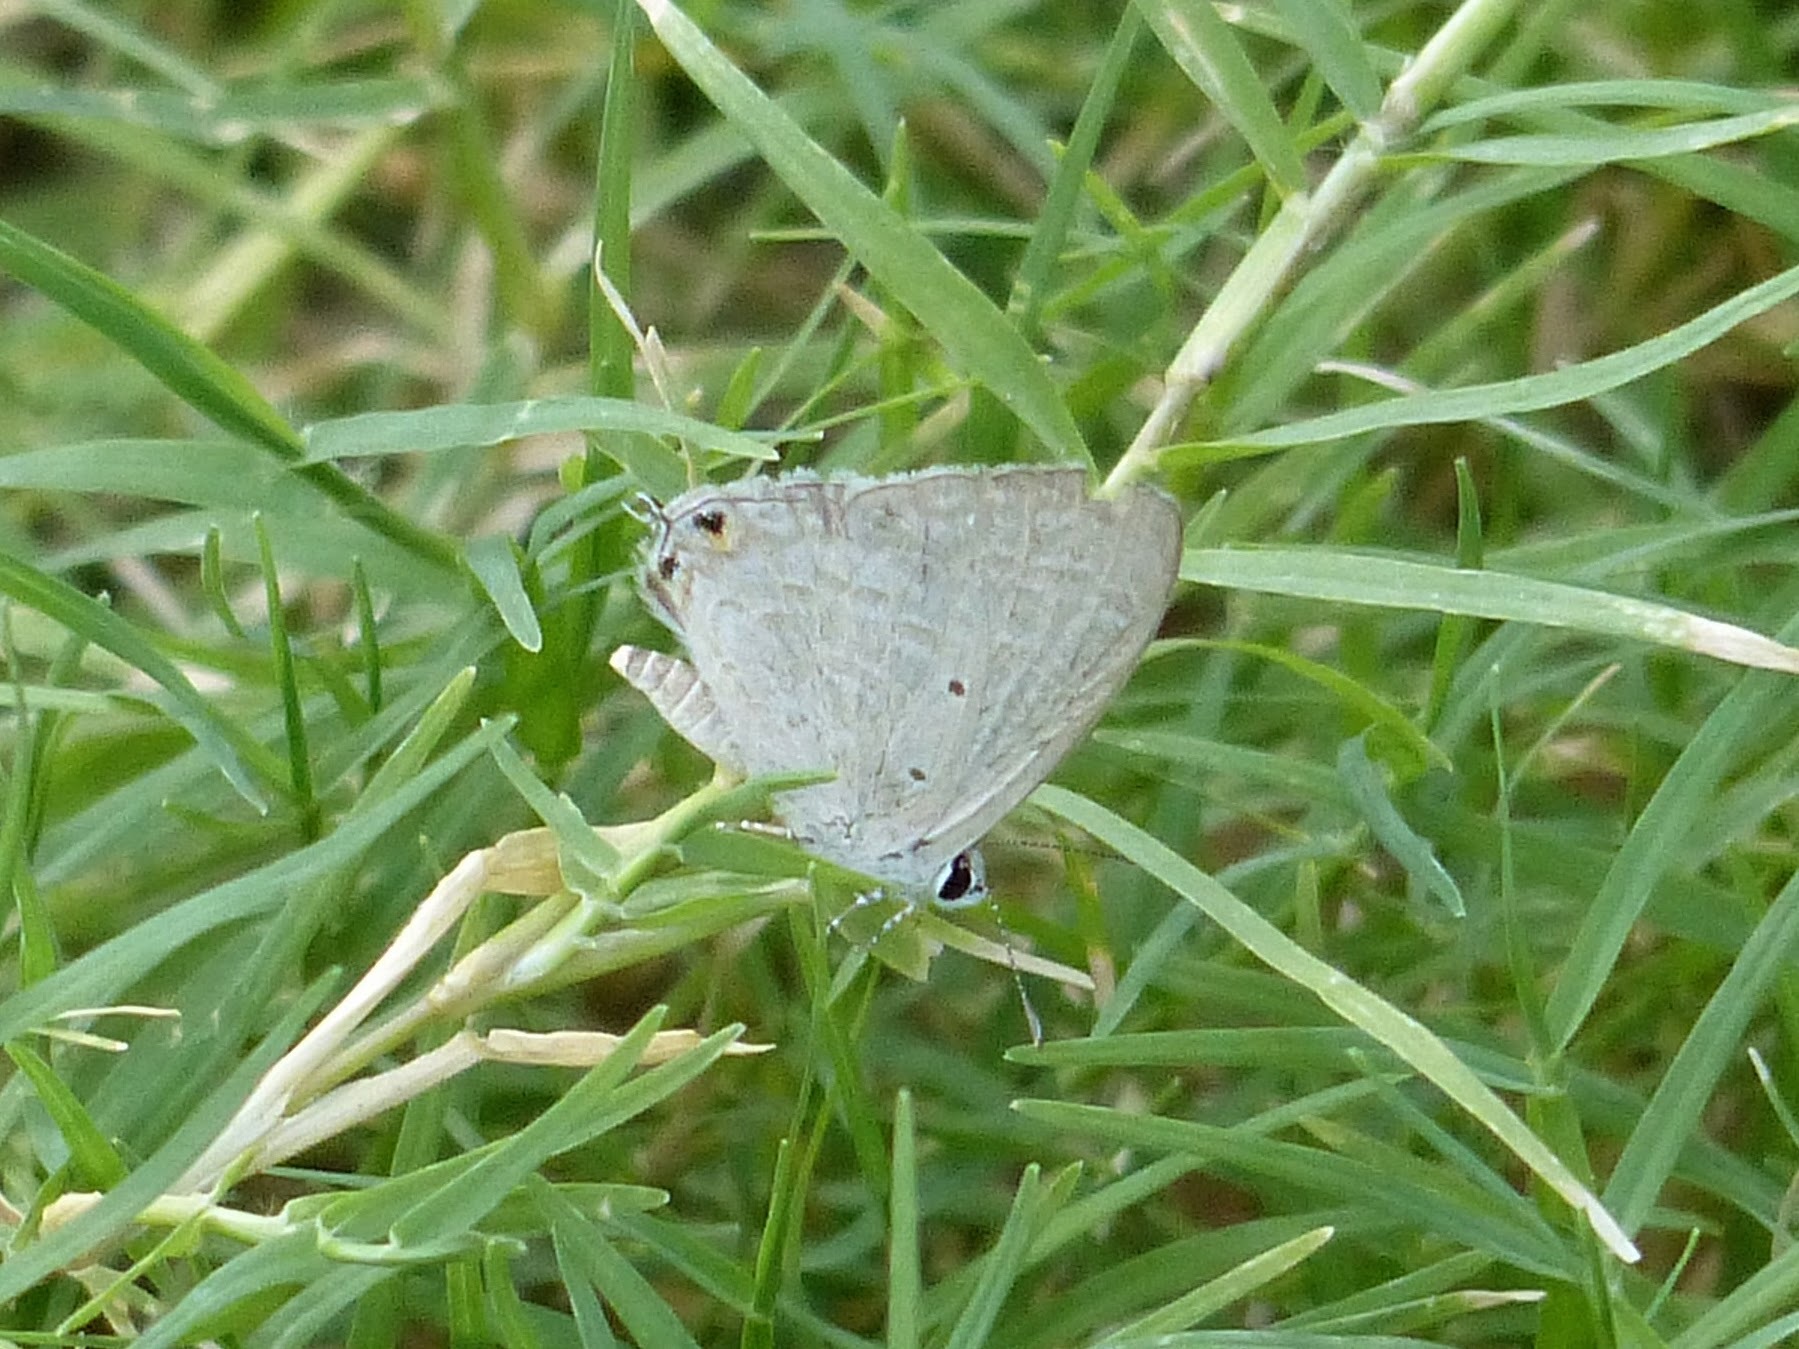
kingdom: Animalia
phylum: Arthropoda
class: Insecta
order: Lepidoptera
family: Lycaenidae
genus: Catochrysops
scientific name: Catochrysops strabo
